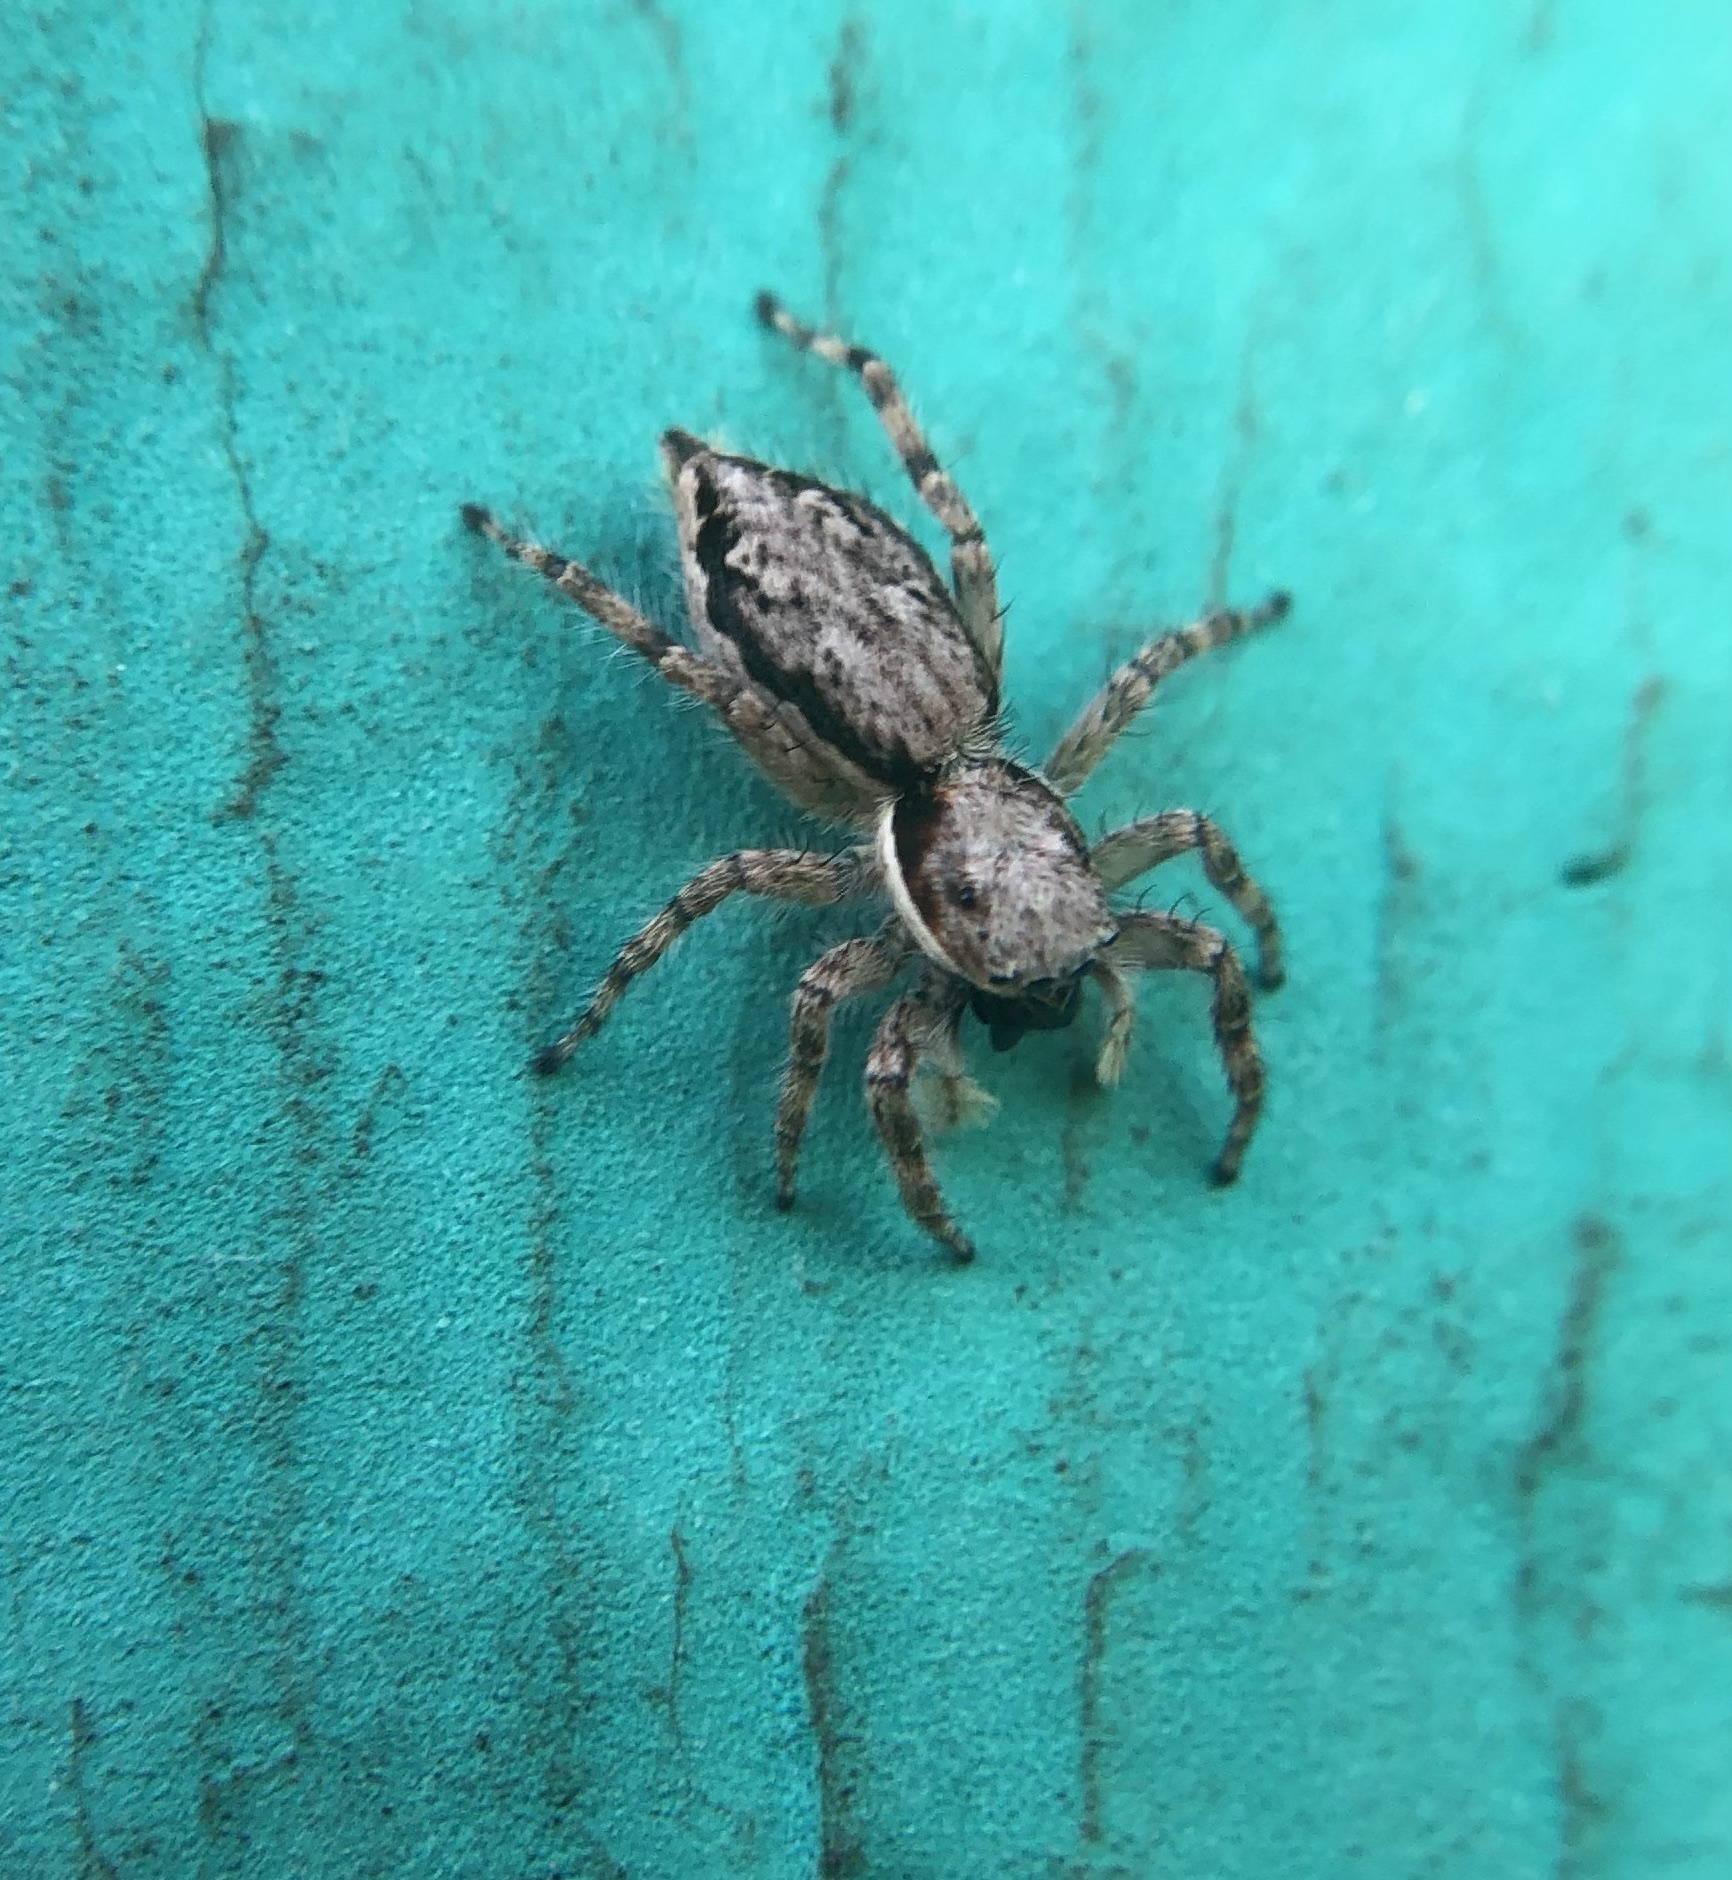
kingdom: Animalia
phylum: Arthropoda
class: Arachnida
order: Araneae
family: Salticidae
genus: Menemerus
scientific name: Menemerus bivittatus
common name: Gray wall jumper
